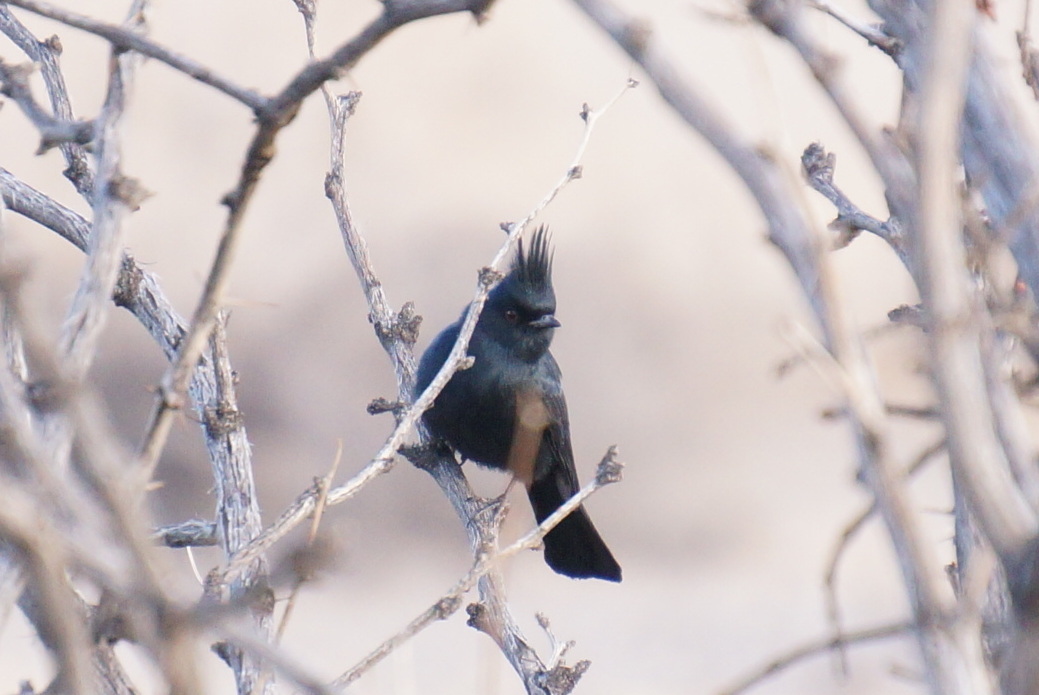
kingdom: Animalia
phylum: Chordata
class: Aves
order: Passeriformes
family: Ptilogonatidae
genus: Phainopepla
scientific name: Phainopepla nitens
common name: Phainopepla
